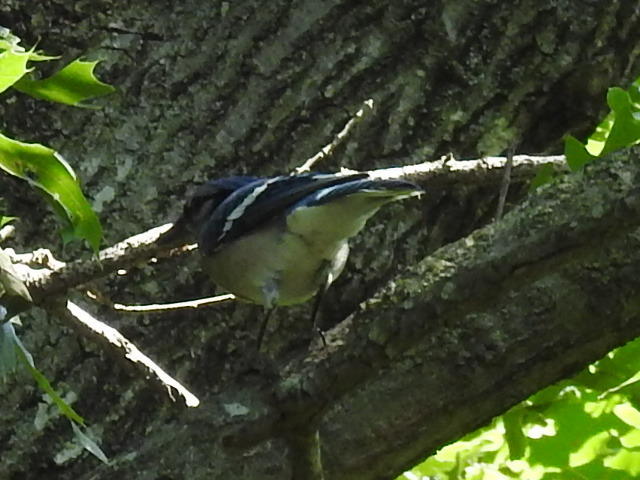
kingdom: Animalia
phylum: Chordata
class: Aves
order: Passeriformes
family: Corvidae
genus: Cyanocitta
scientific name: Cyanocitta cristata
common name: Blue jay
